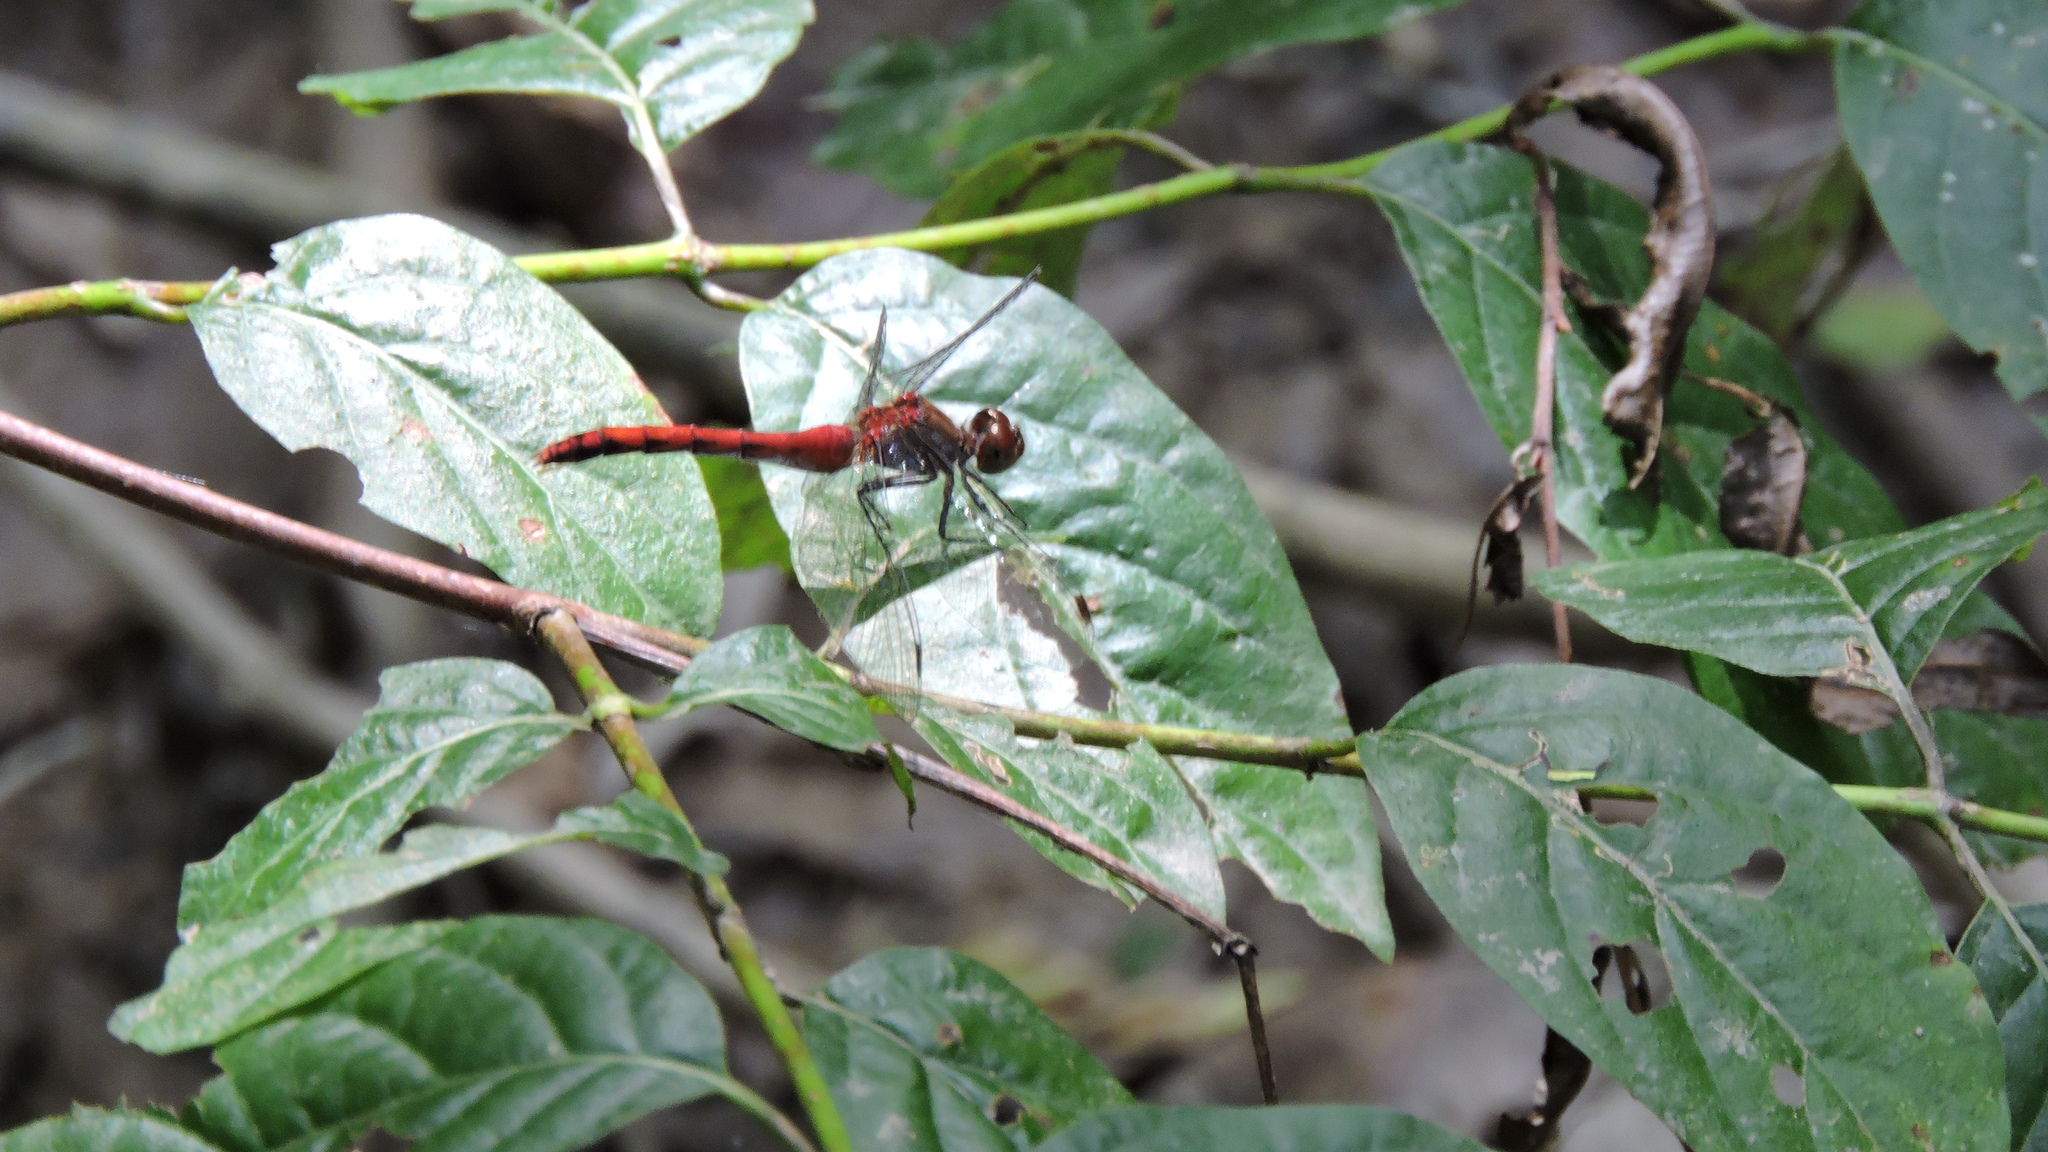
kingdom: Animalia
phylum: Arthropoda
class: Insecta
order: Odonata
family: Libellulidae
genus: Sympetrum
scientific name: Sympetrum
